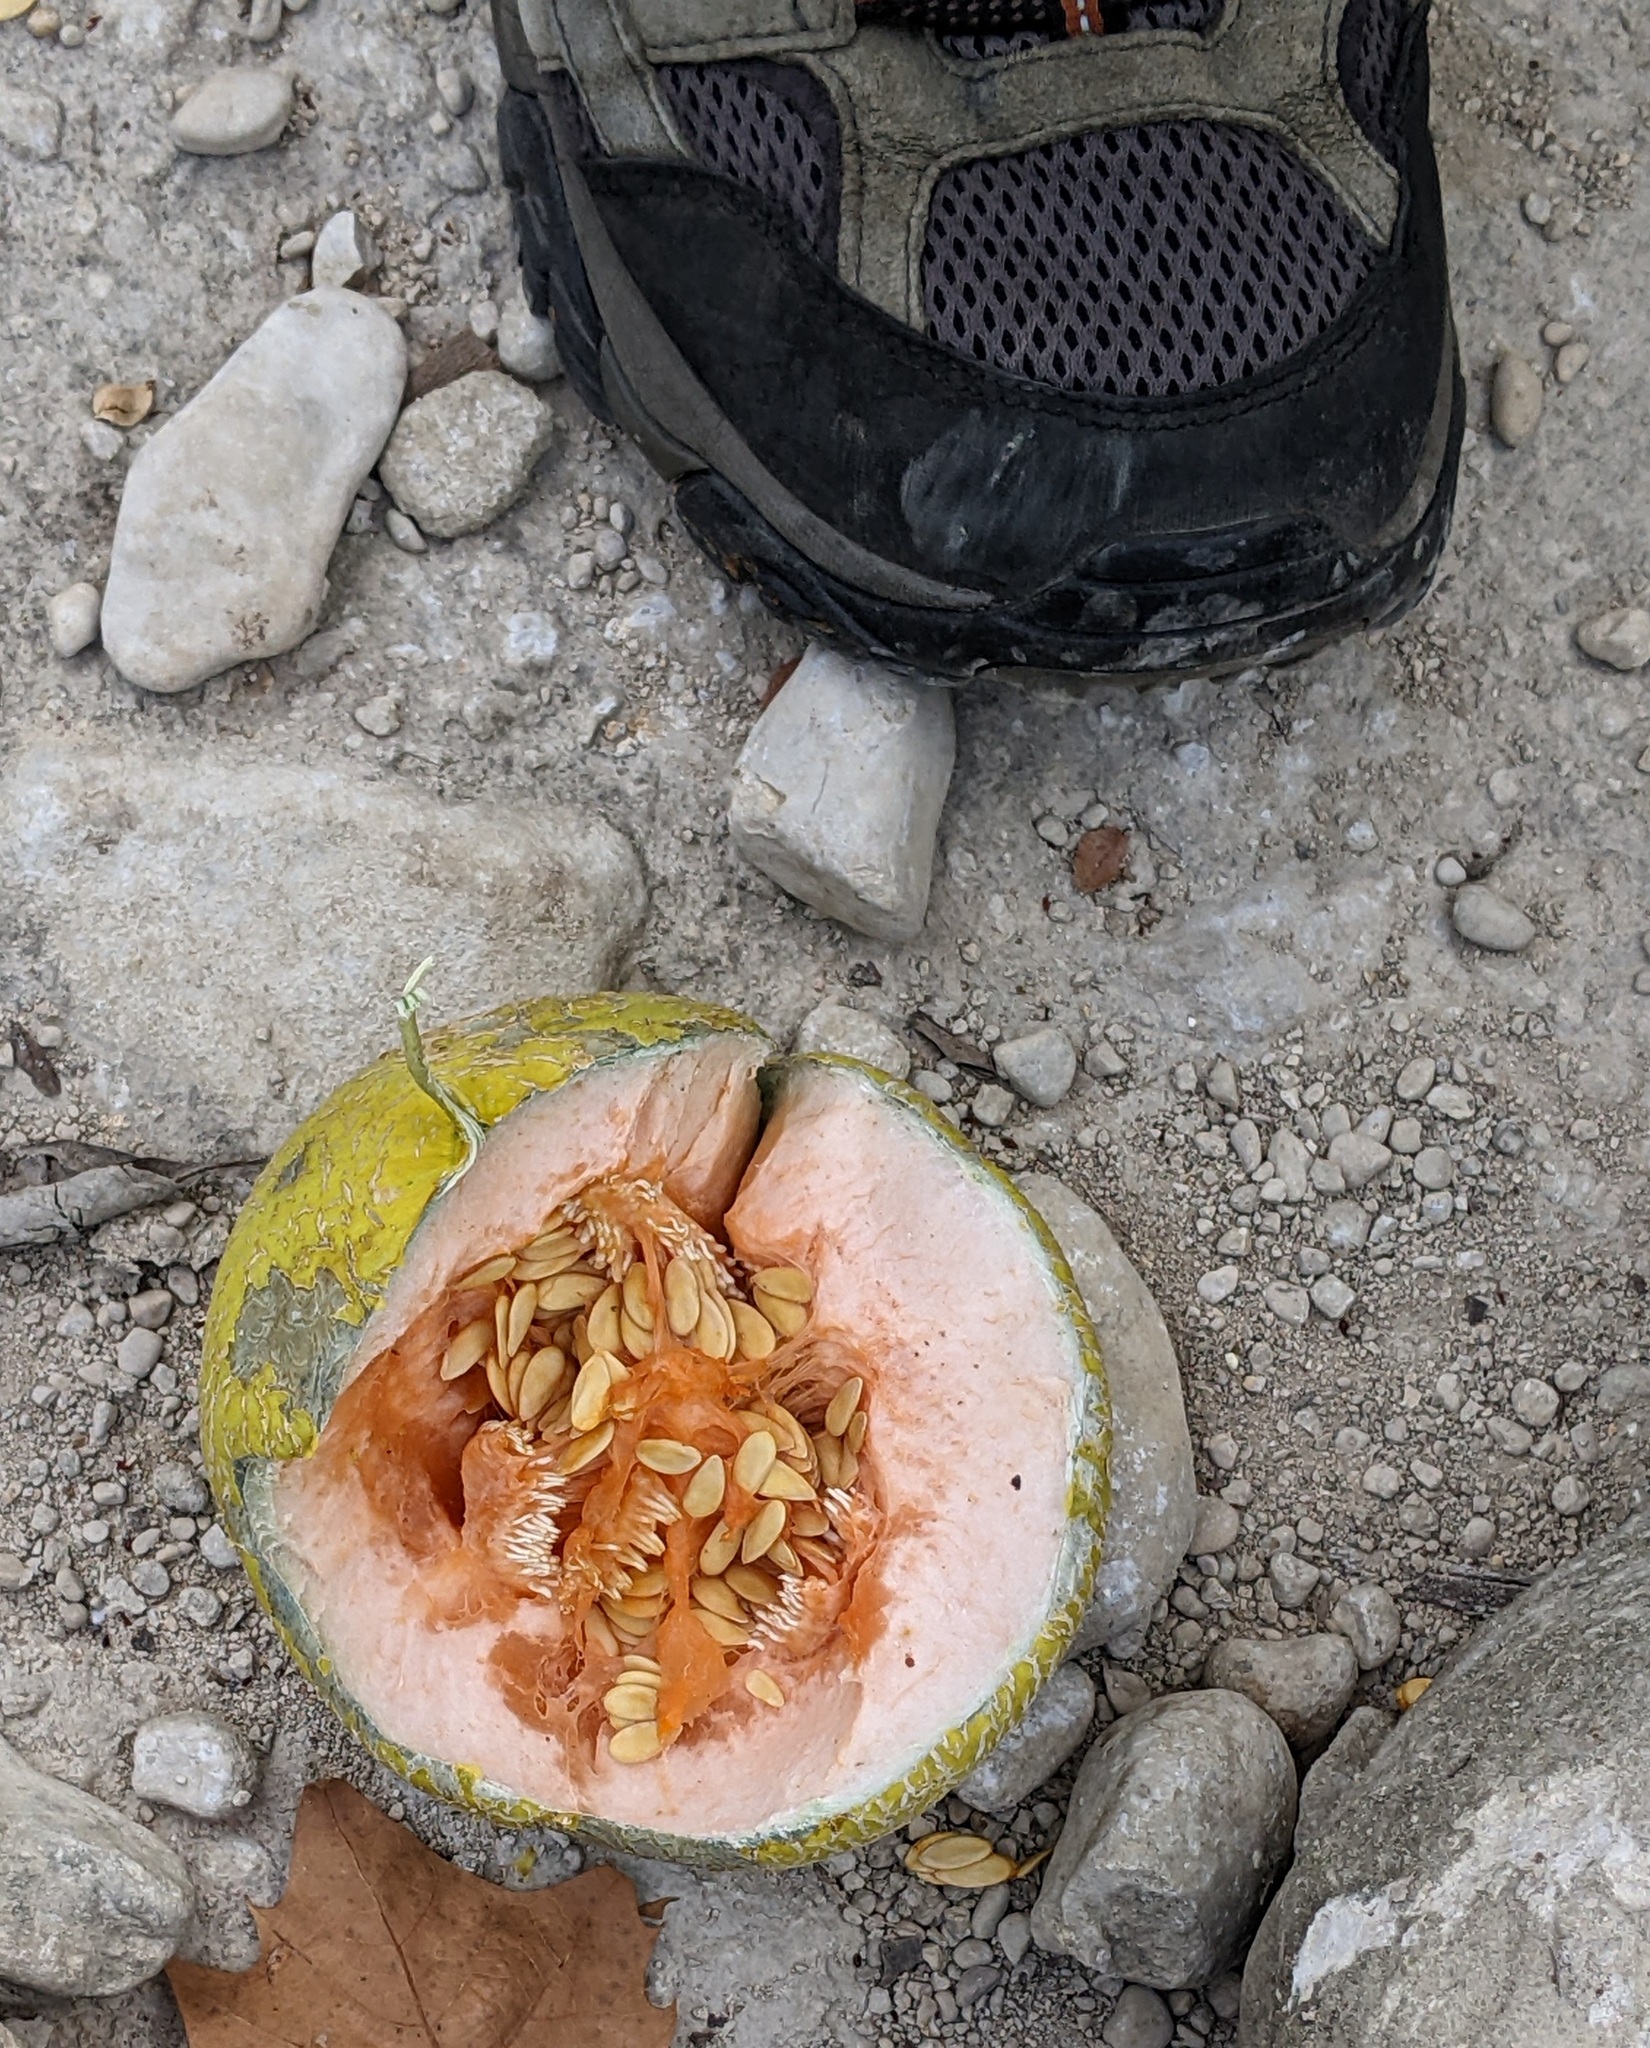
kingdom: Plantae
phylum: Tracheophyta
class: Magnoliopsida
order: Cucurbitales
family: Cucurbitaceae
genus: Cucumis
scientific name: Cucumis melo
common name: Melon
